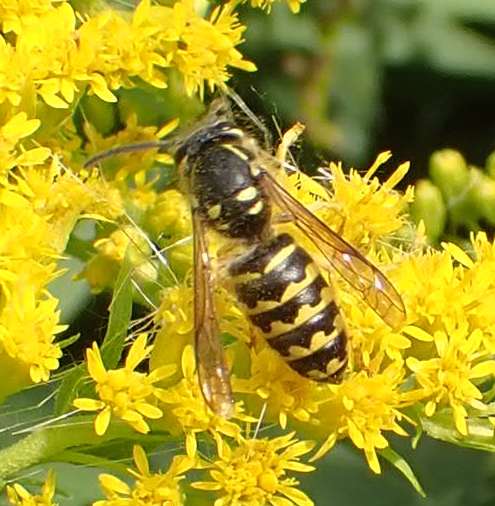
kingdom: Animalia
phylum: Arthropoda
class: Insecta
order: Hymenoptera
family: Vespidae
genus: Dolichovespula
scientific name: Dolichovespula arenaria
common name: Aerial yellowjacket
